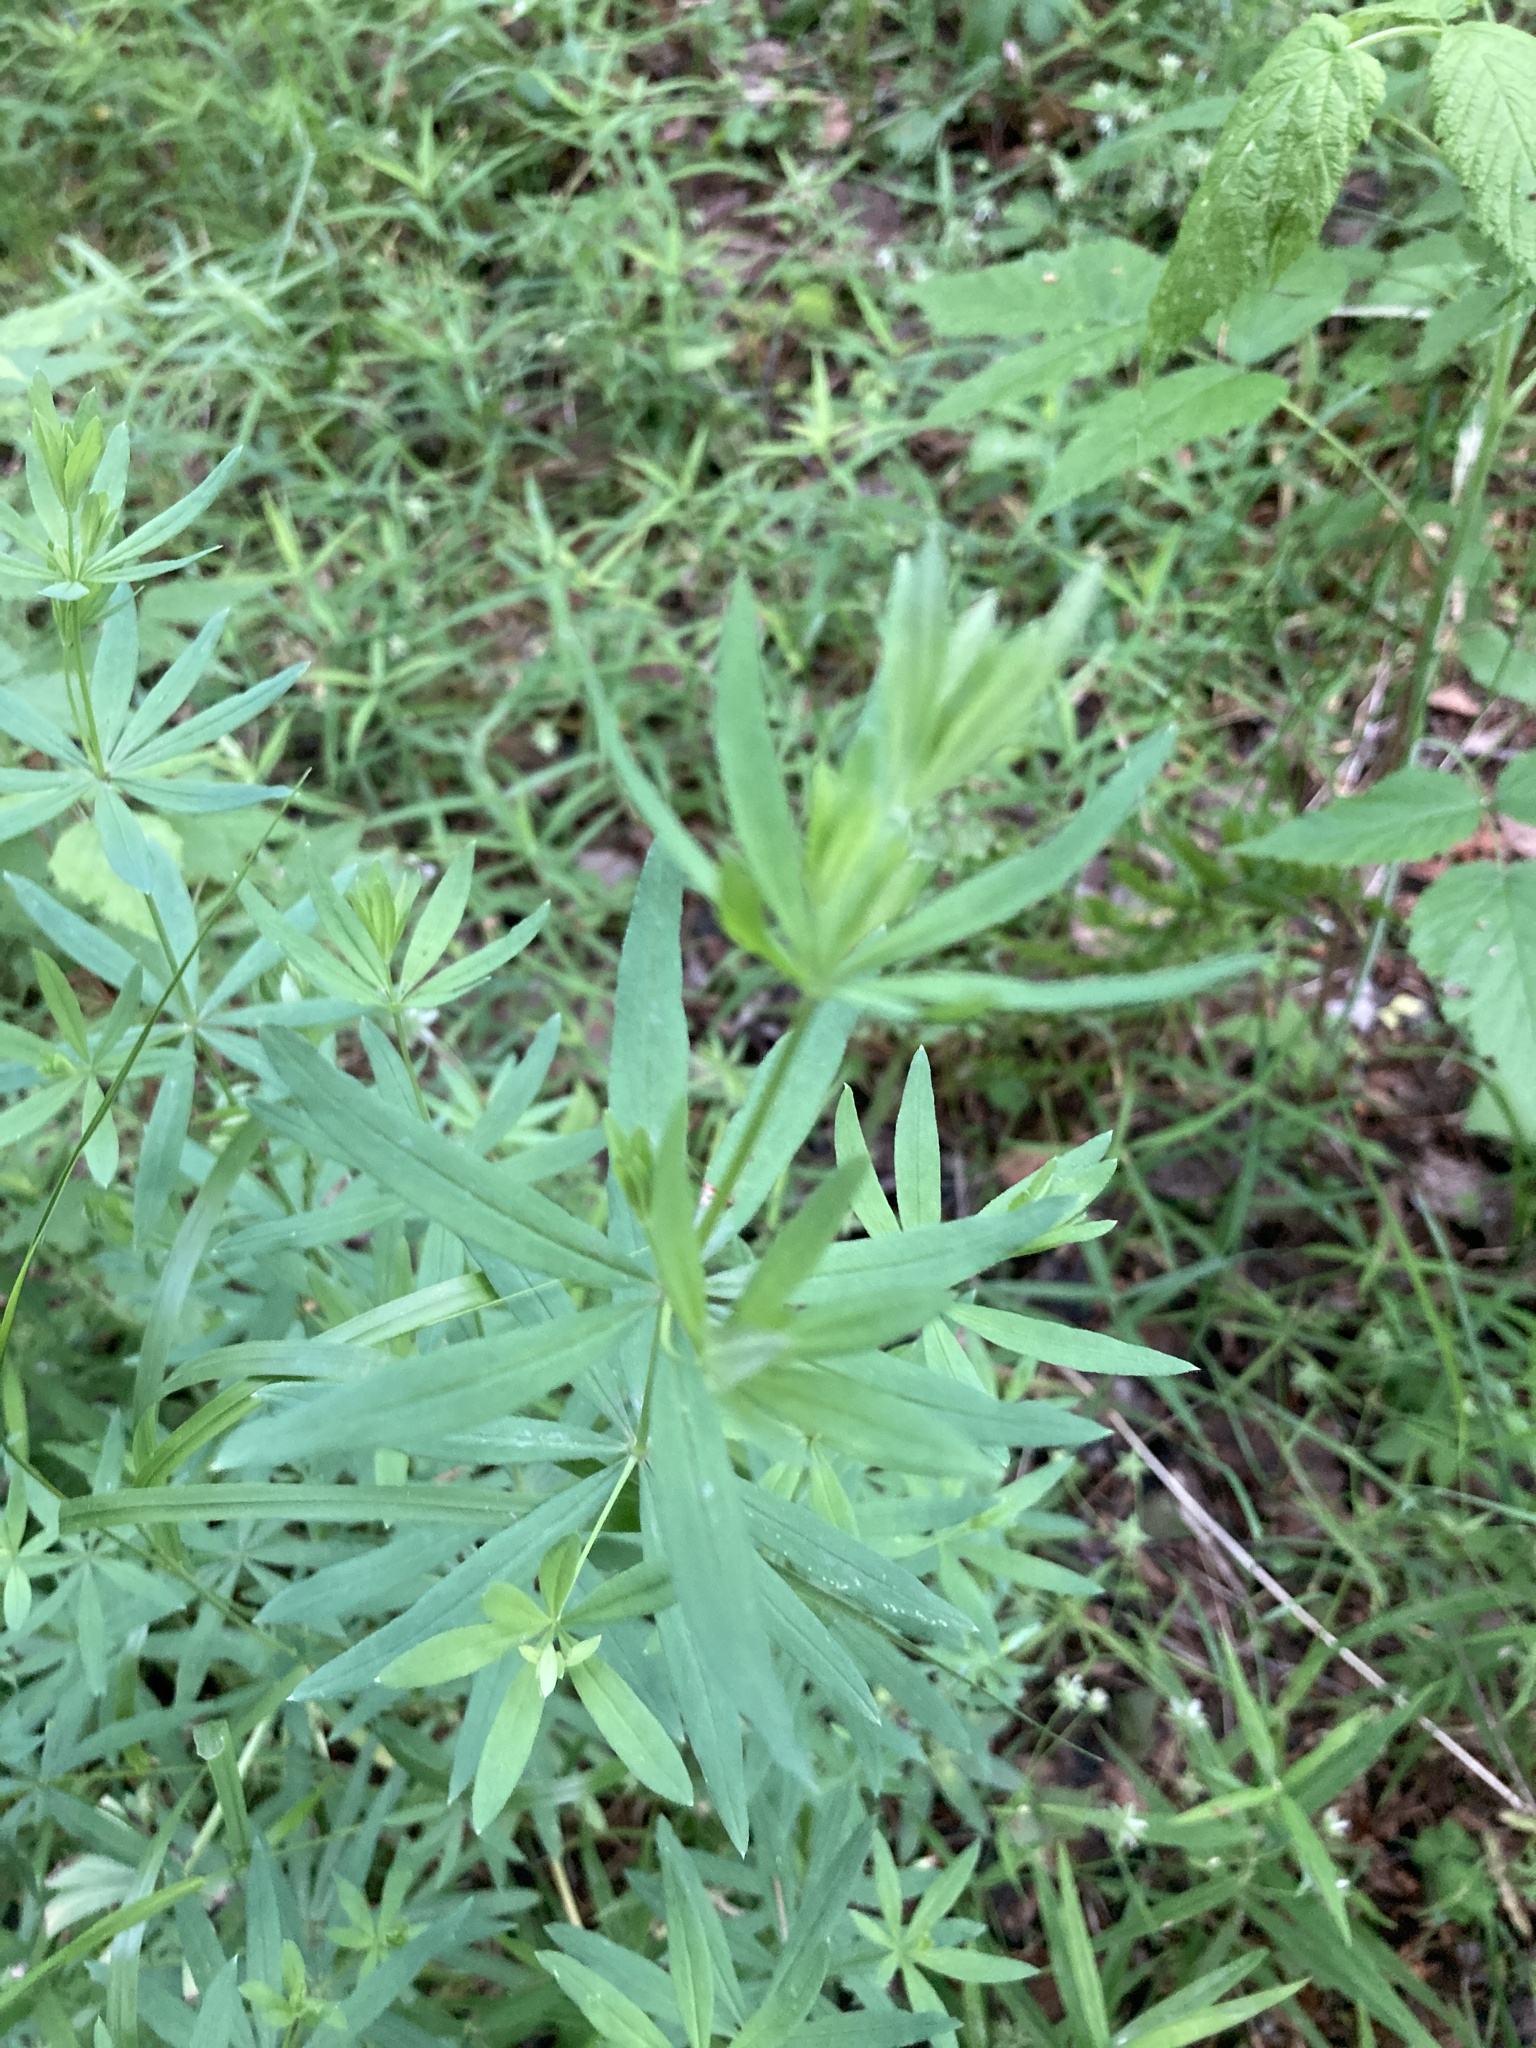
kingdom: Plantae
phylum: Tracheophyta
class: Magnoliopsida
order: Gentianales
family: Rubiaceae
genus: Galium
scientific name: Galium intermedium
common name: Bedstraw
